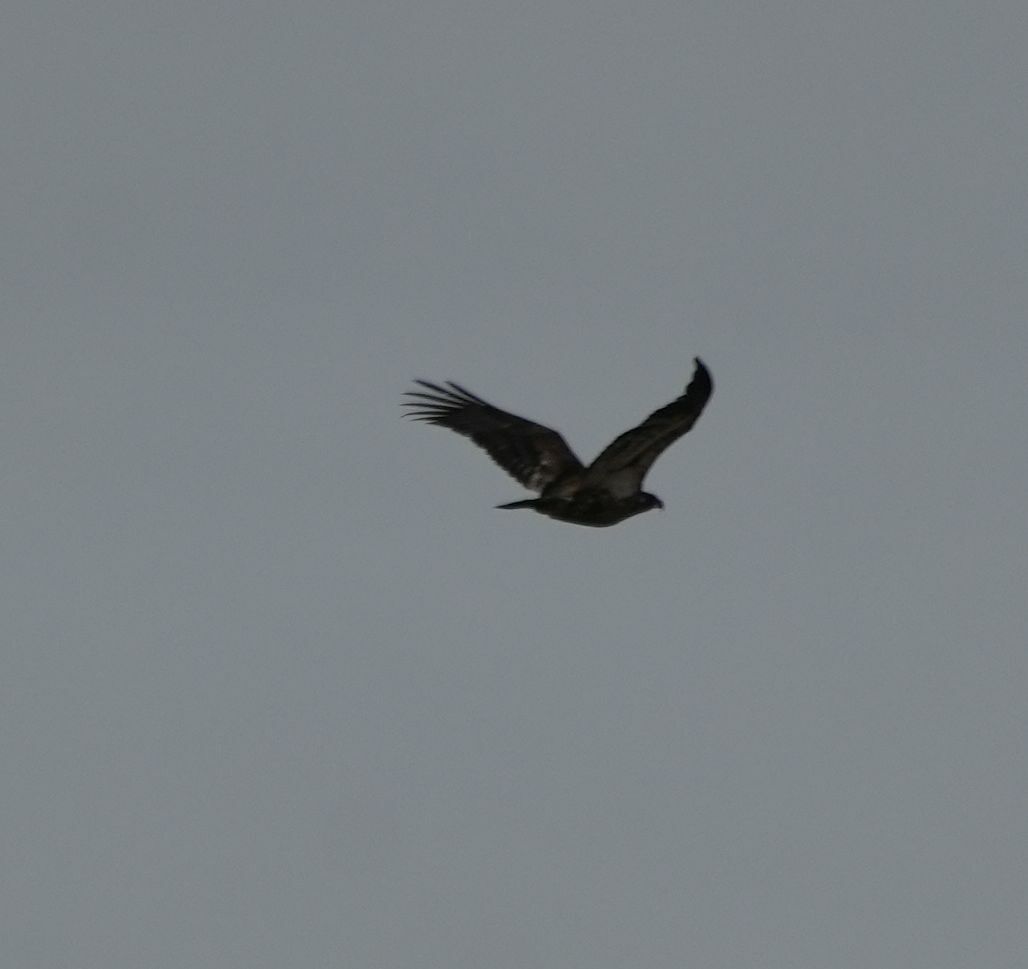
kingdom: Animalia
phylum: Chordata
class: Aves
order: Accipitriformes
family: Accipitridae
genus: Haliaeetus
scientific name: Haliaeetus leucocephalus
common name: Bald eagle
